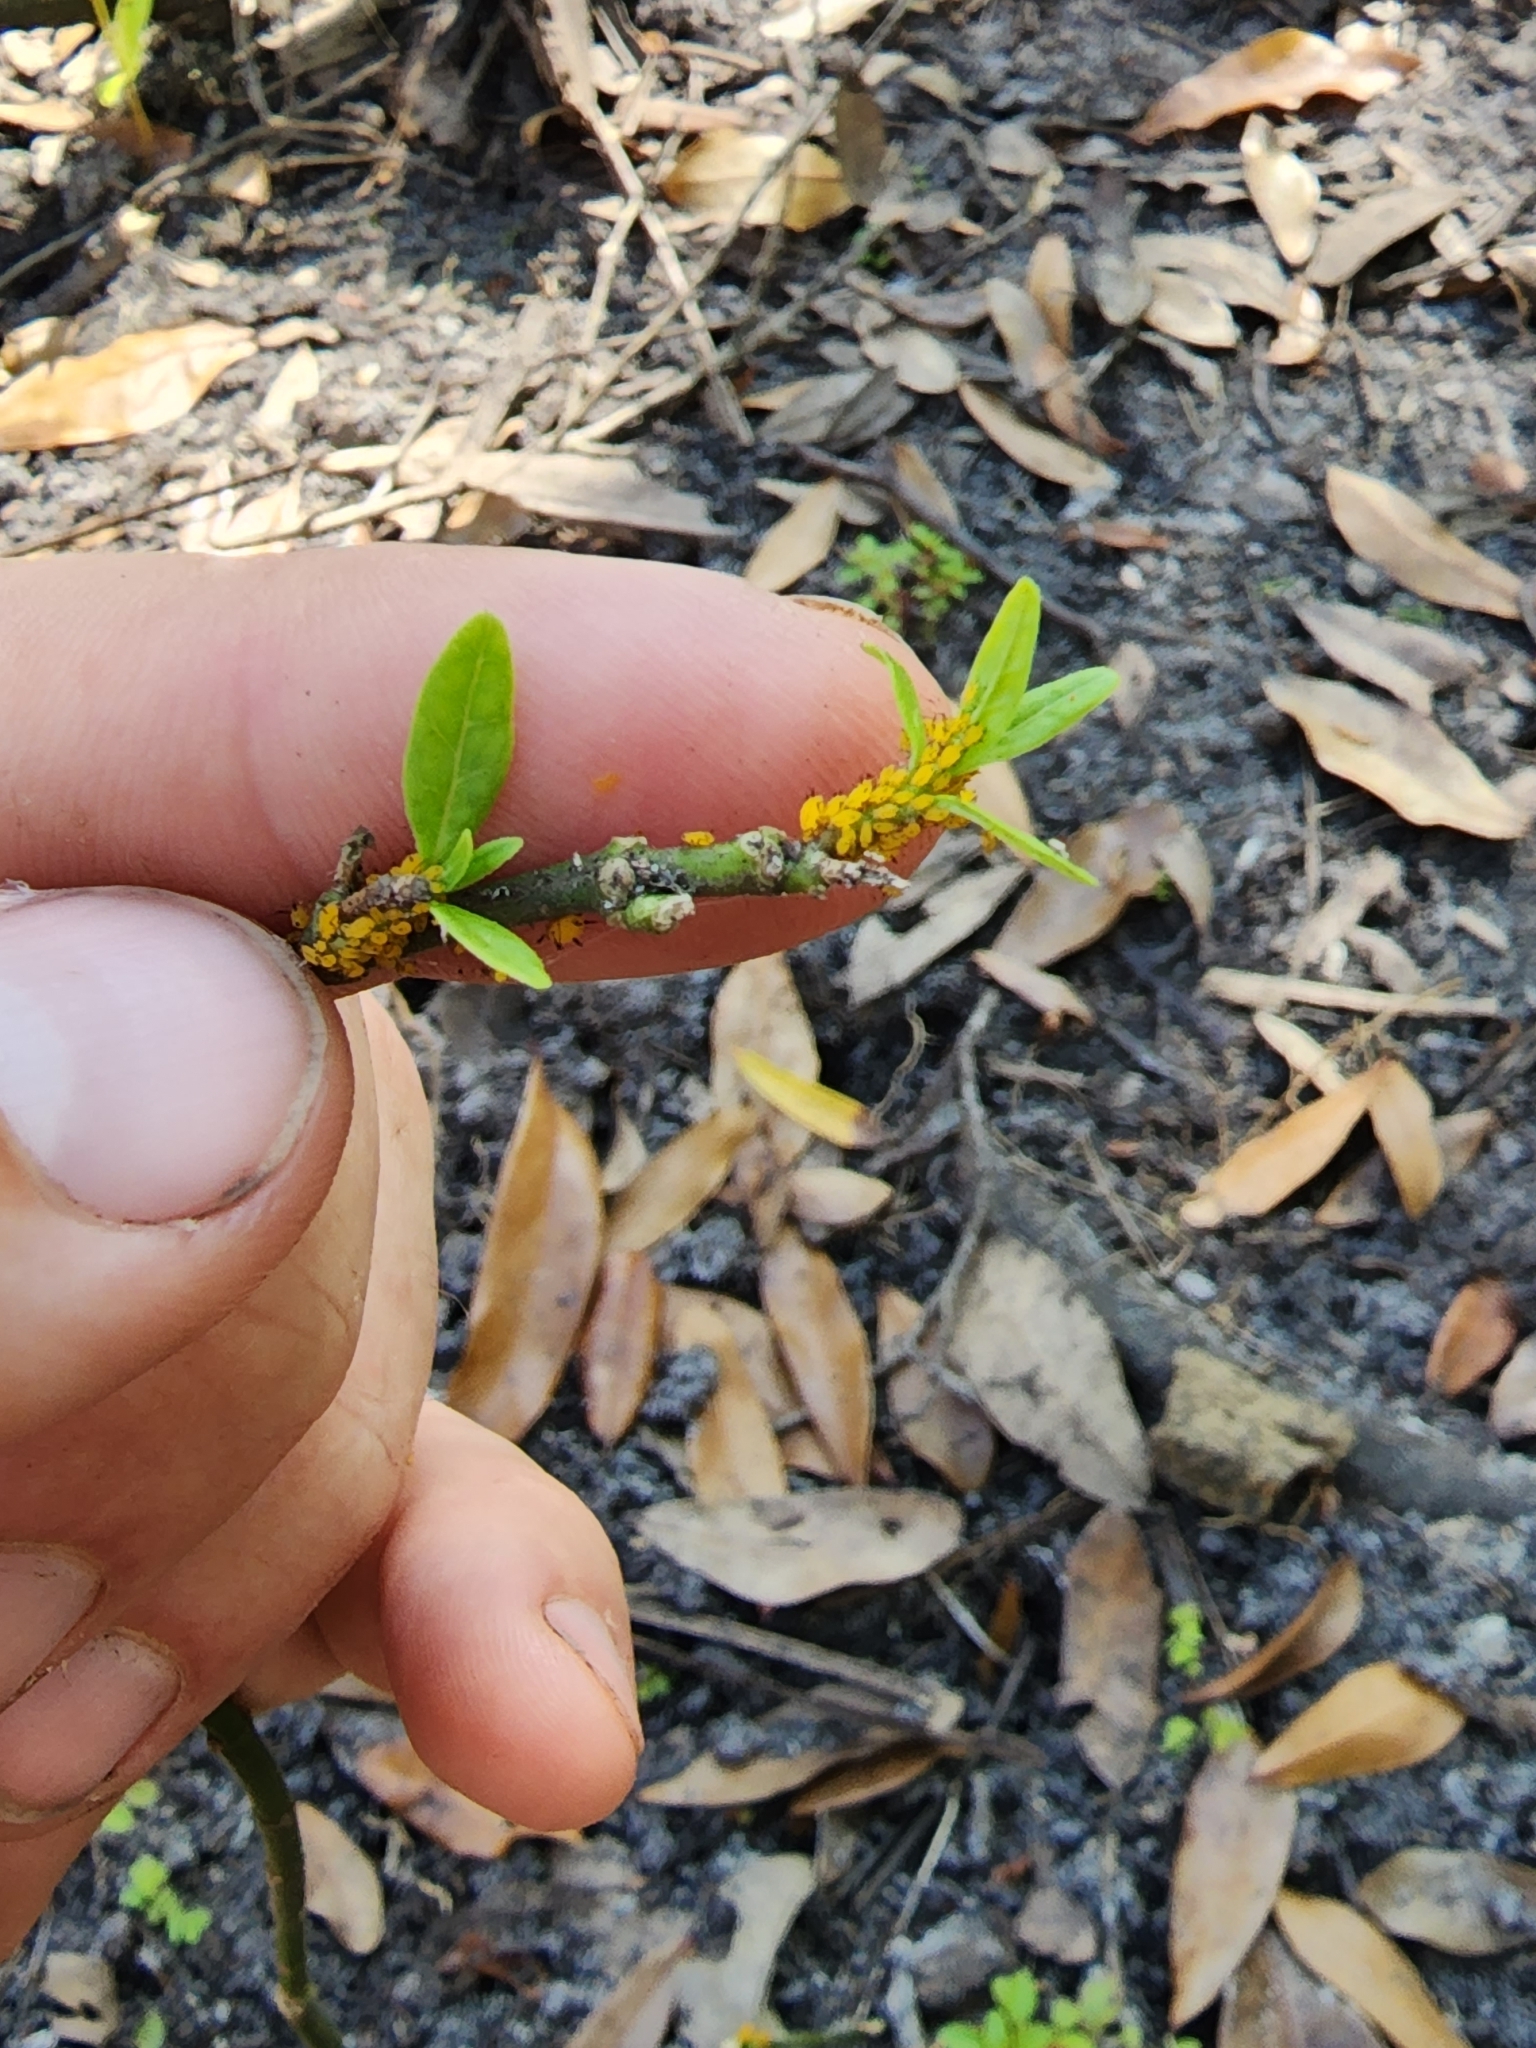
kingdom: Plantae
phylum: Tracheophyta
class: Magnoliopsida
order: Gentianales
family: Apocynaceae
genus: Asclepias
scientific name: Asclepias perennis
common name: Smooth-seed milkweed
